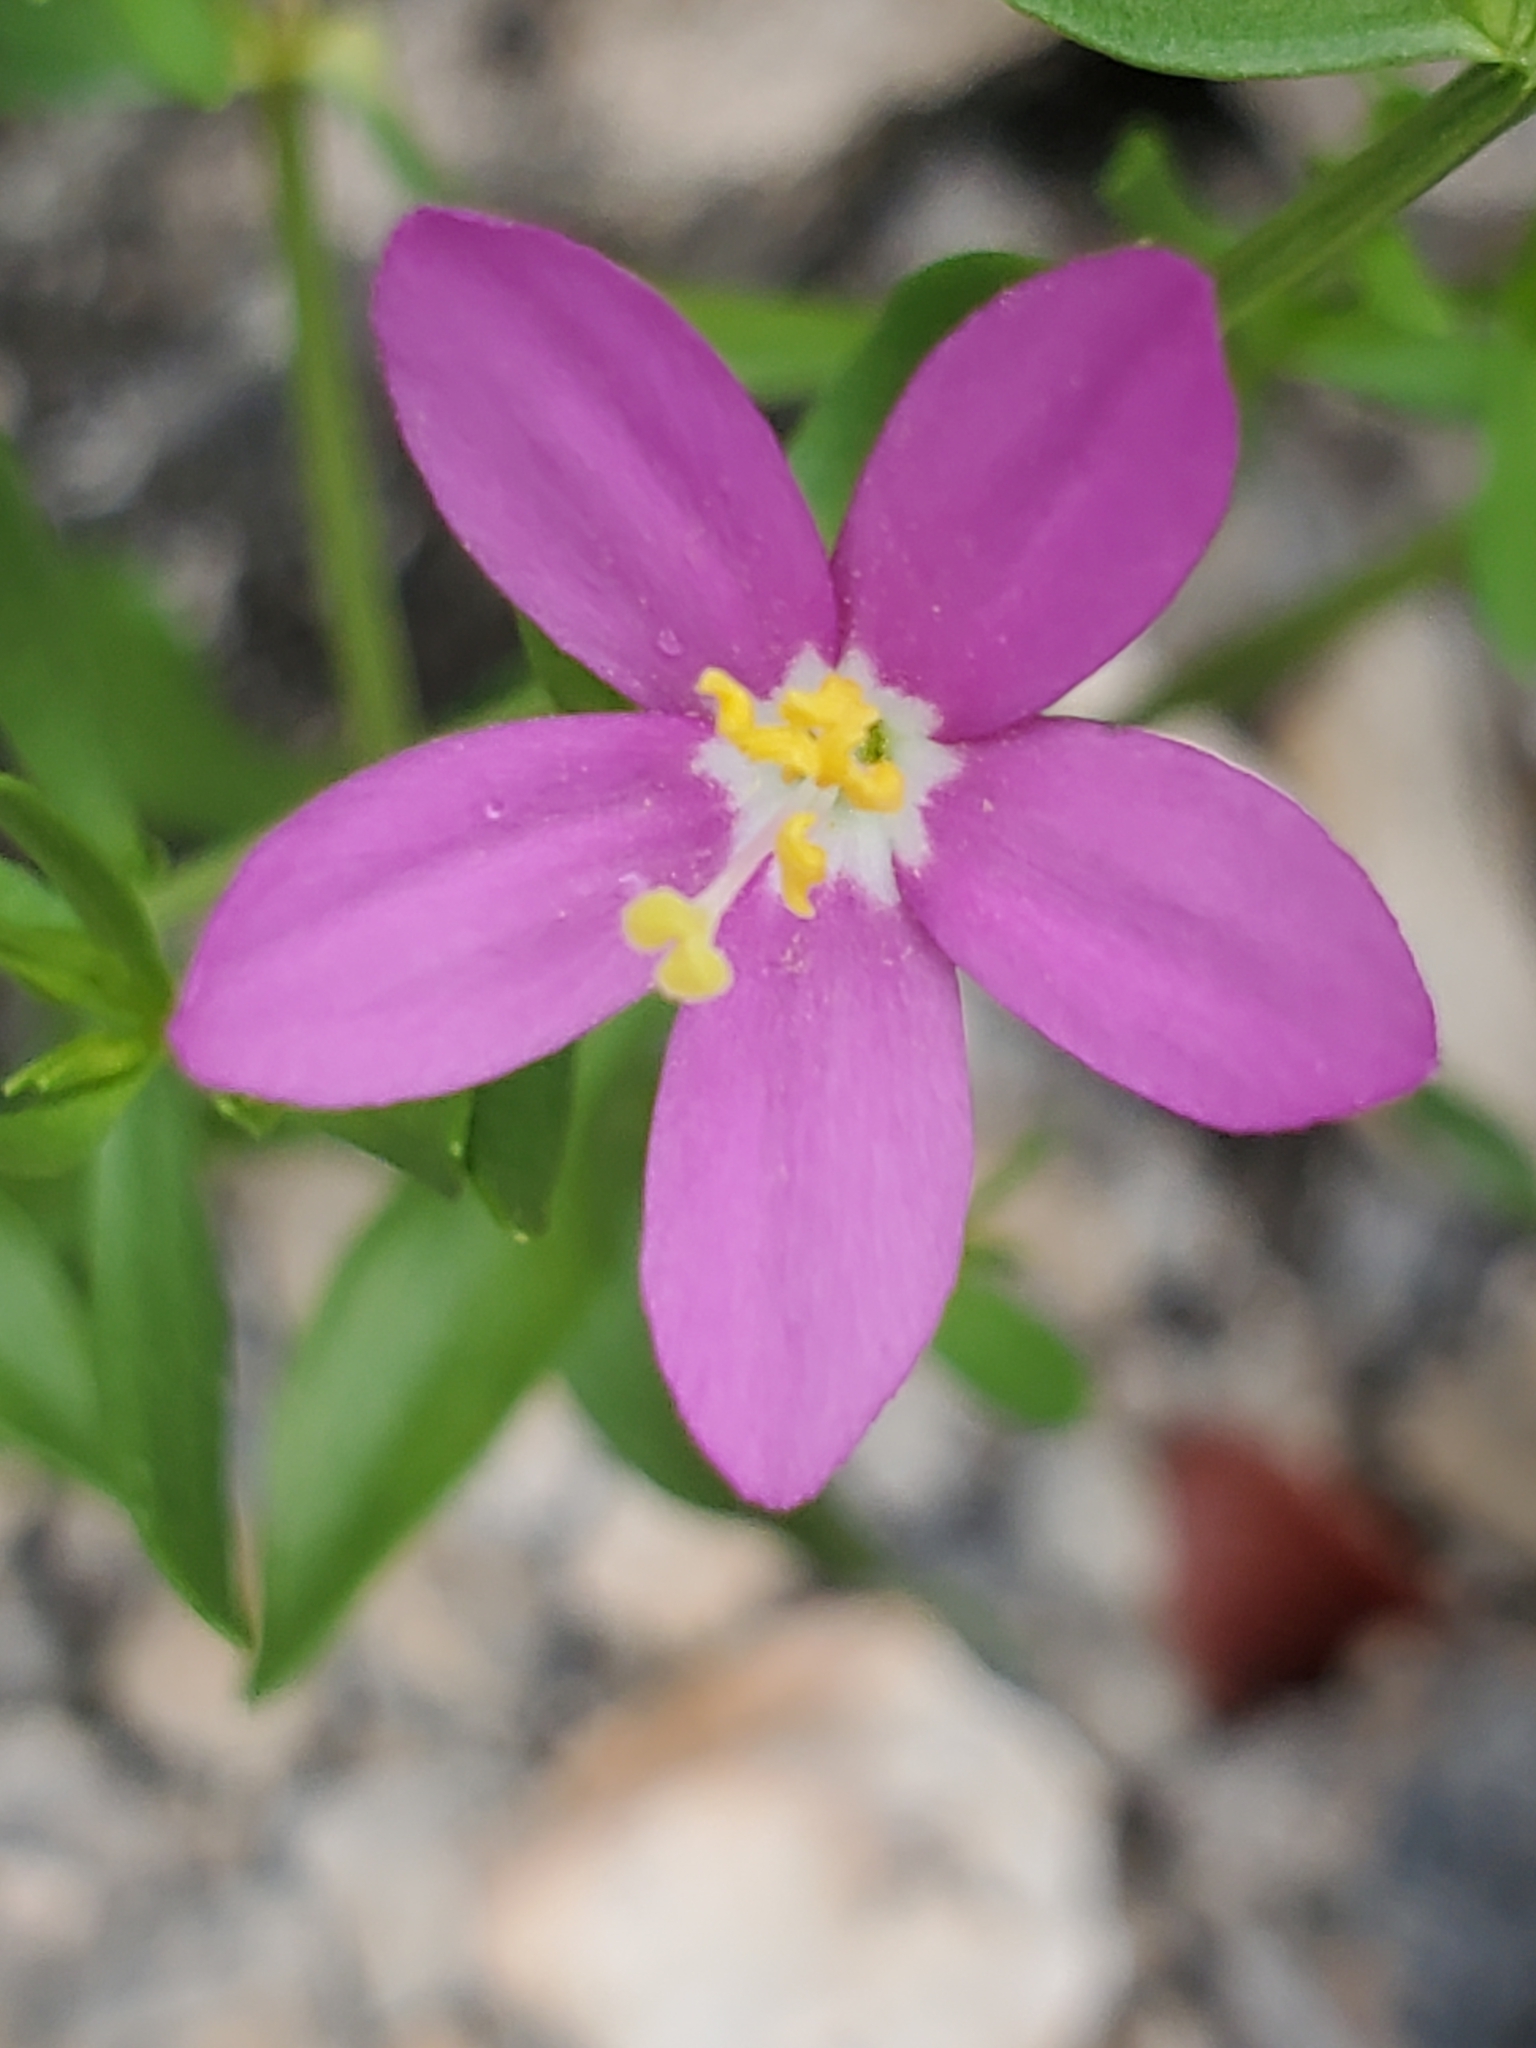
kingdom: Plantae
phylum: Tracheophyta
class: Magnoliopsida
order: Gentianales
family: Gentianaceae
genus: Zeltnera
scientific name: Zeltnera calycosa
